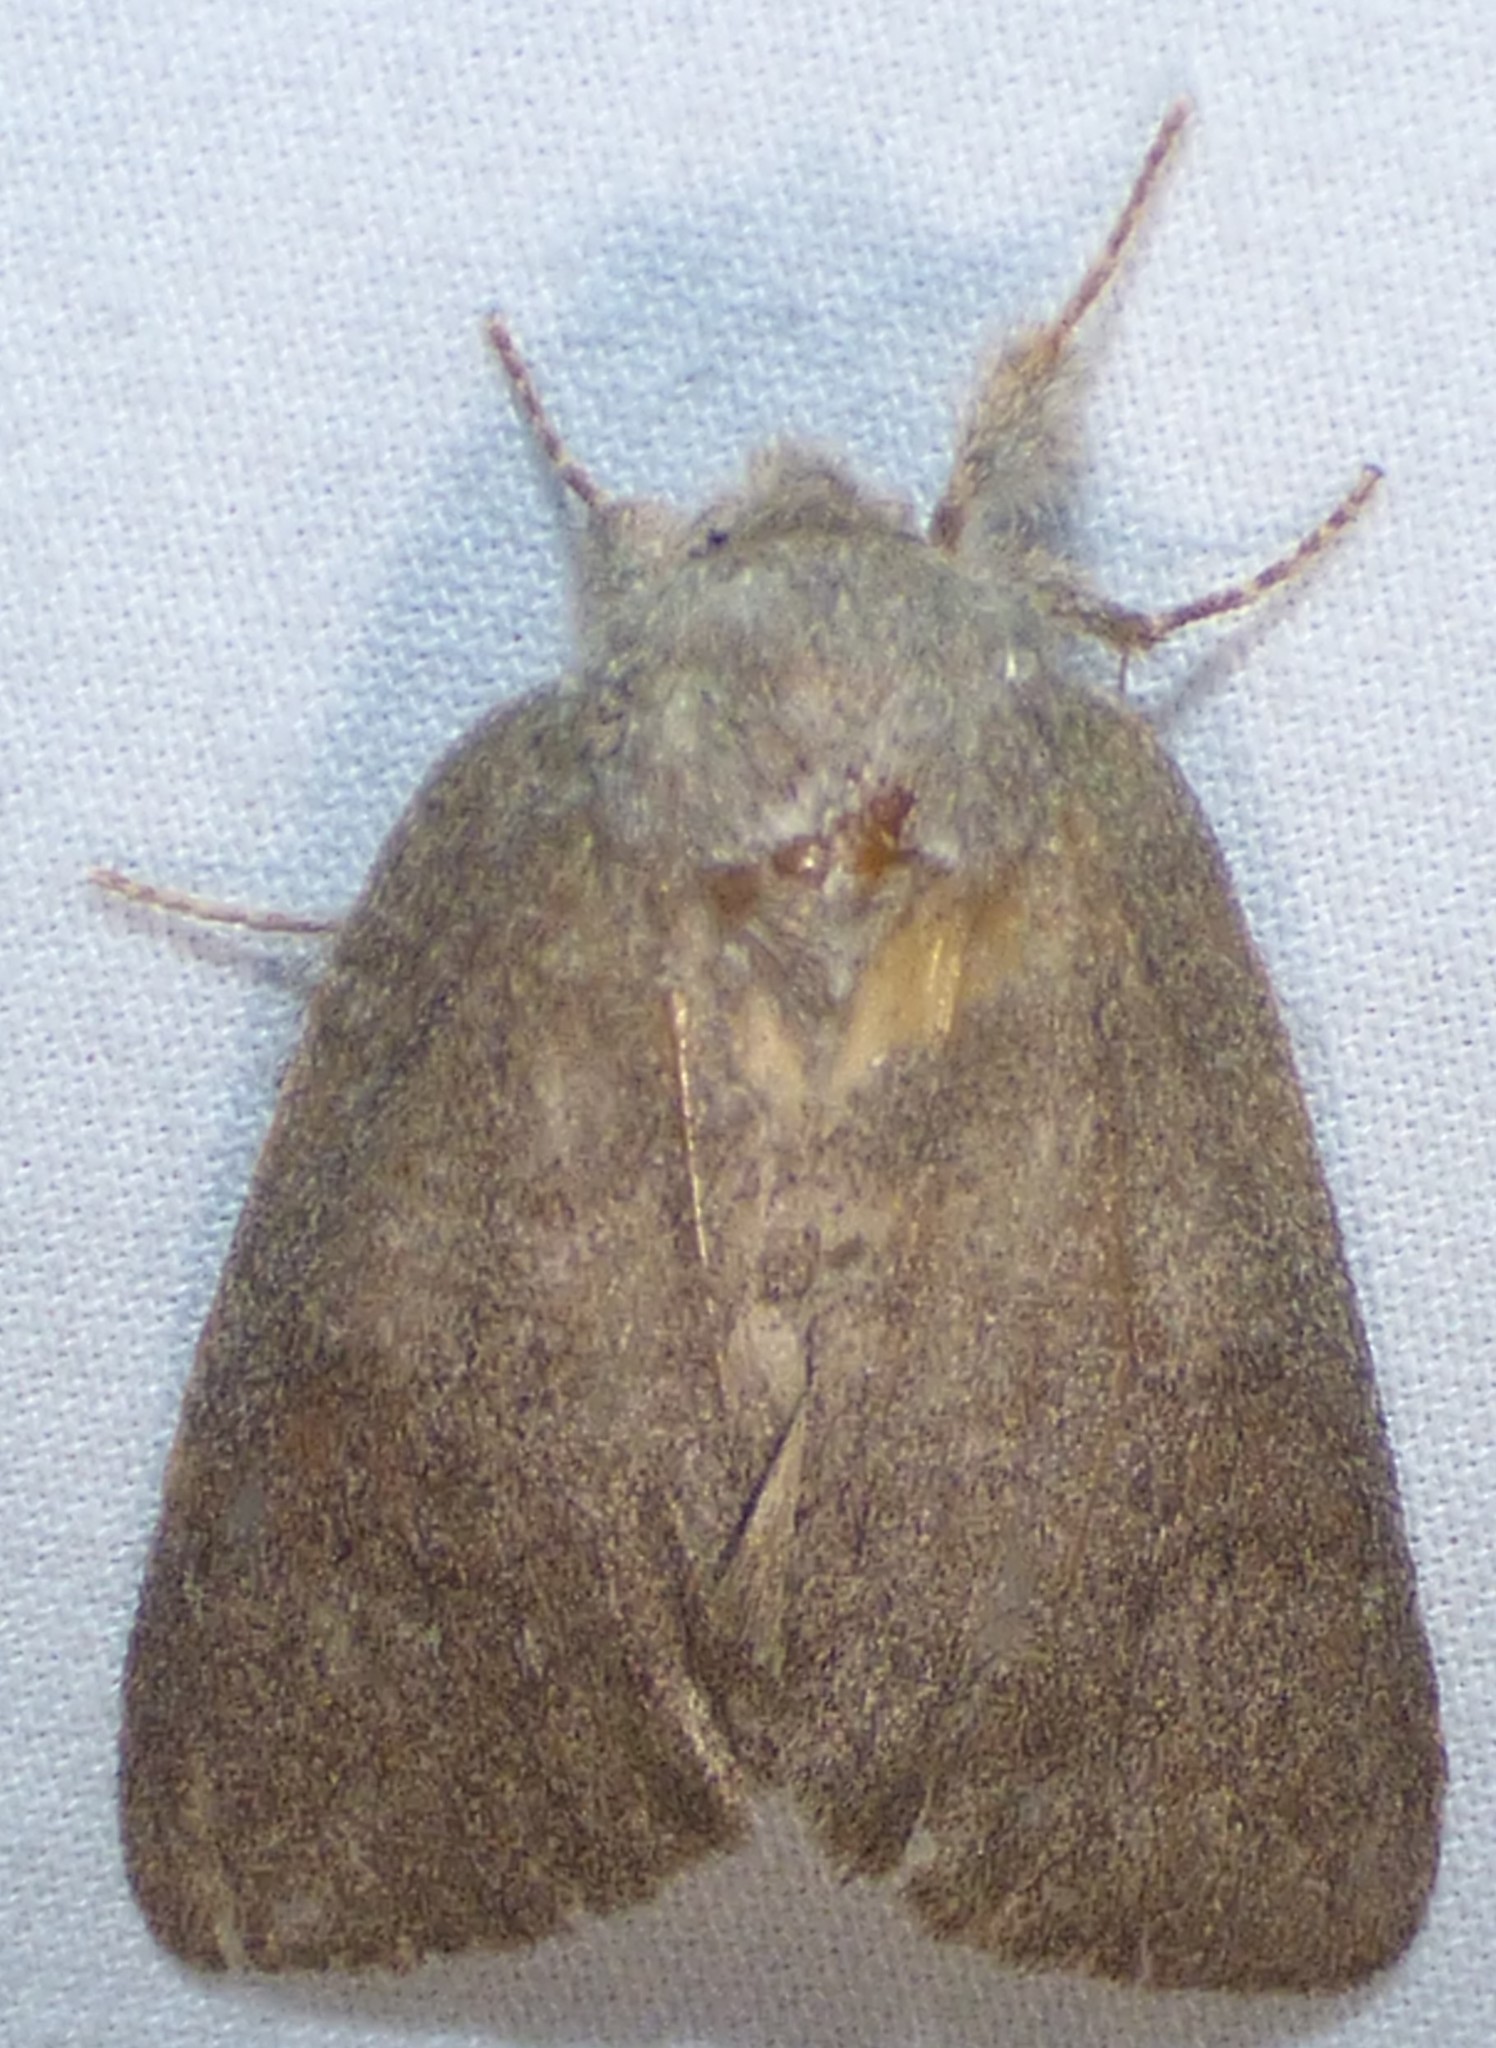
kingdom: Animalia
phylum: Arthropoda
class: Insecta
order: Lepidoptera
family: Notodontidae
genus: Misogada
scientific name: Misogada unicolor
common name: Drab prominent
